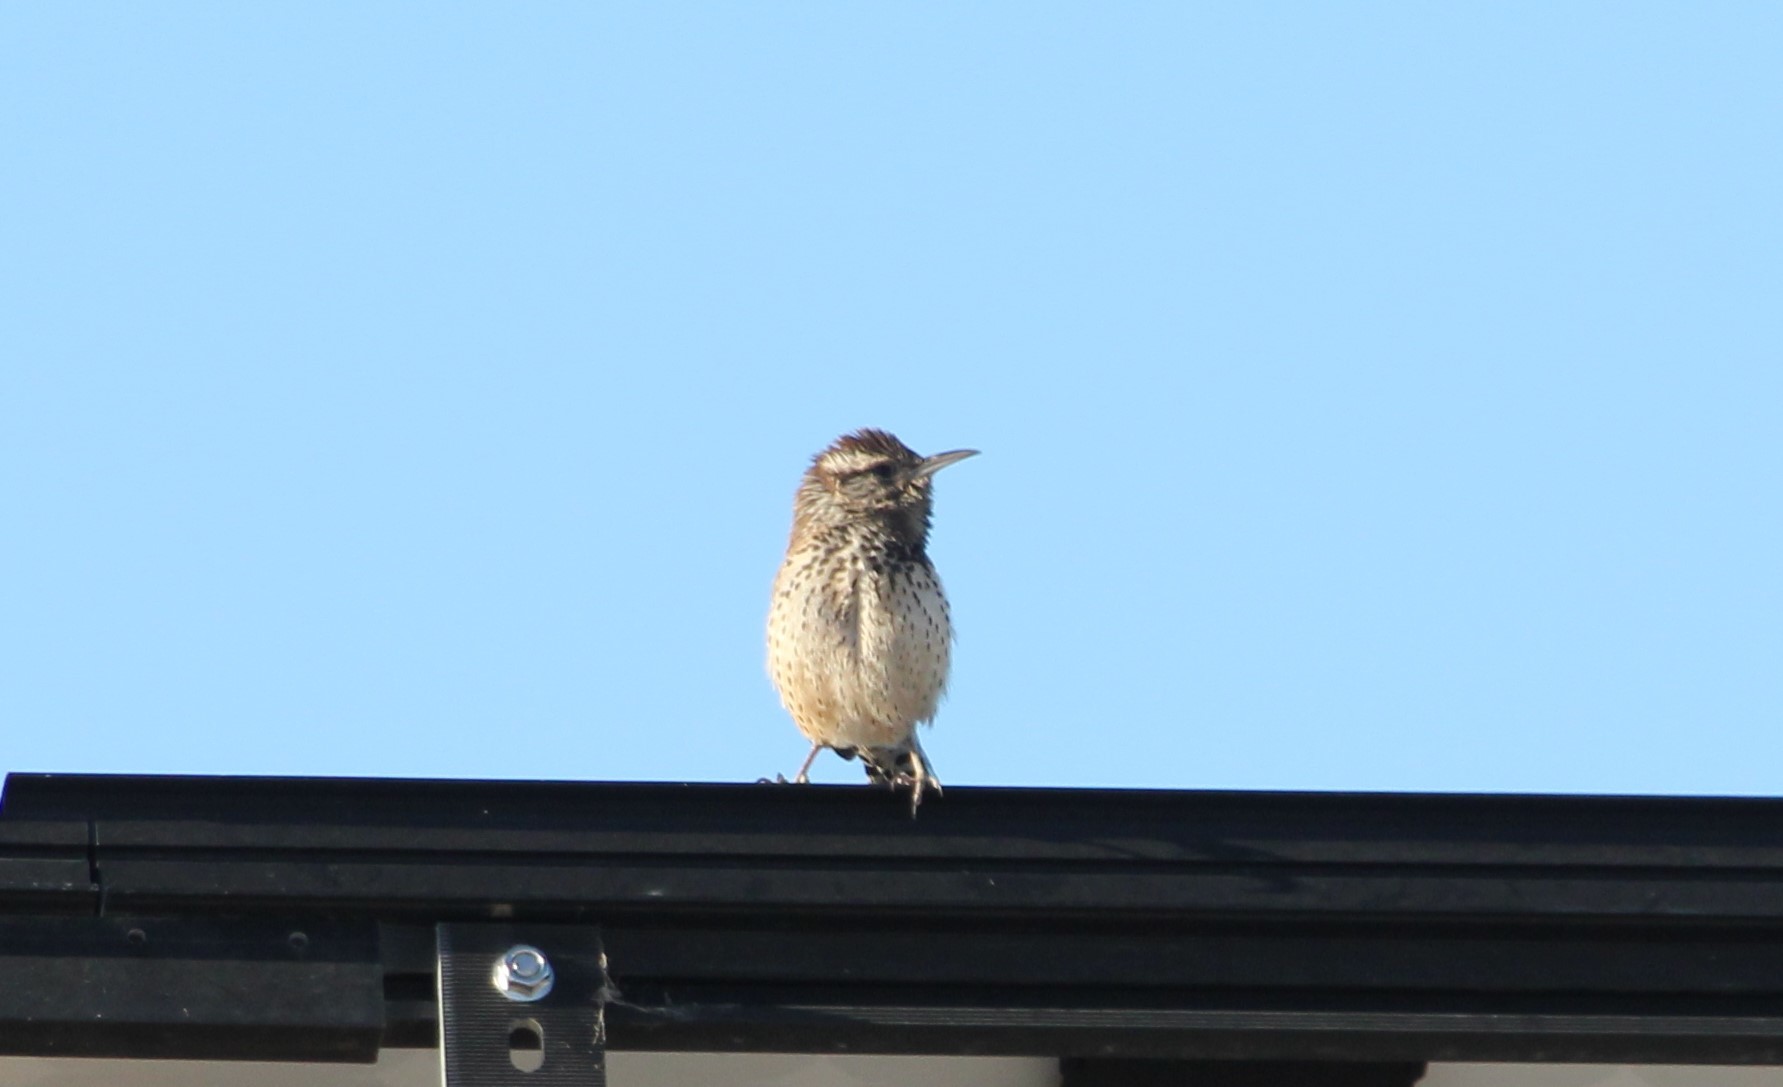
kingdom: Animalia
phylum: Chordata
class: Aves
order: Passeriformes
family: Troglodytidae
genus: Campylorhynchus
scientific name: Campylorhynchus brunneicapillus
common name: Cactus wren
